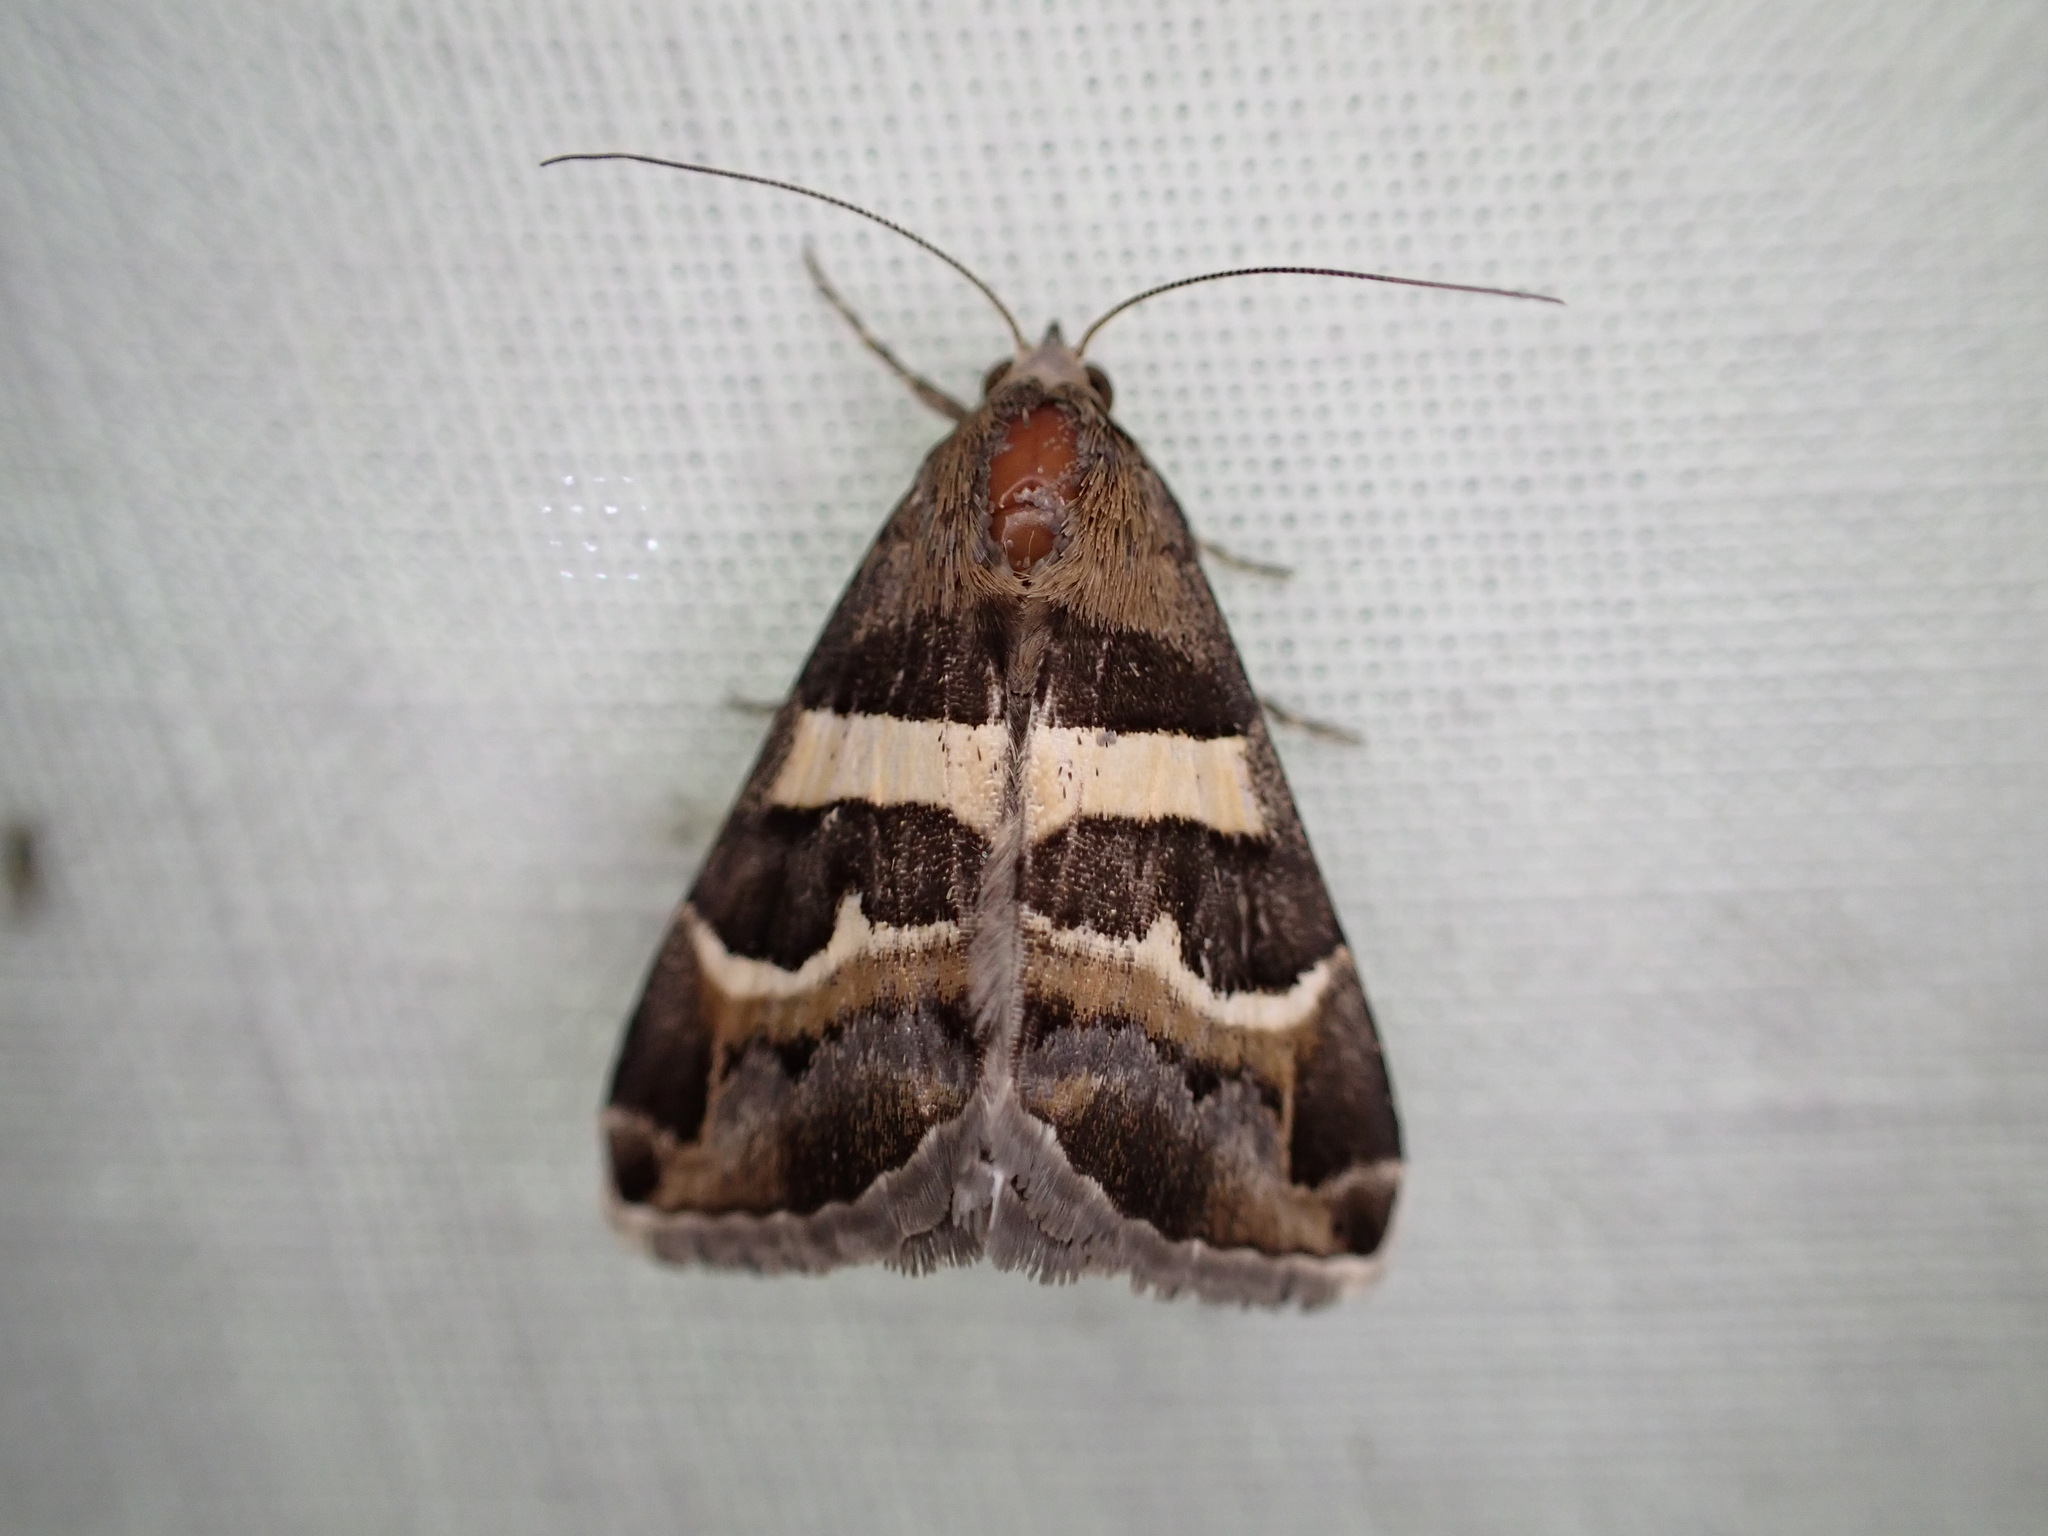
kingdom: Animalia
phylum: Arthropoda
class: Insecta
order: Lepidoptera
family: Erebidae
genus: Grammodes
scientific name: Grammodes stolida
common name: Geometrician
